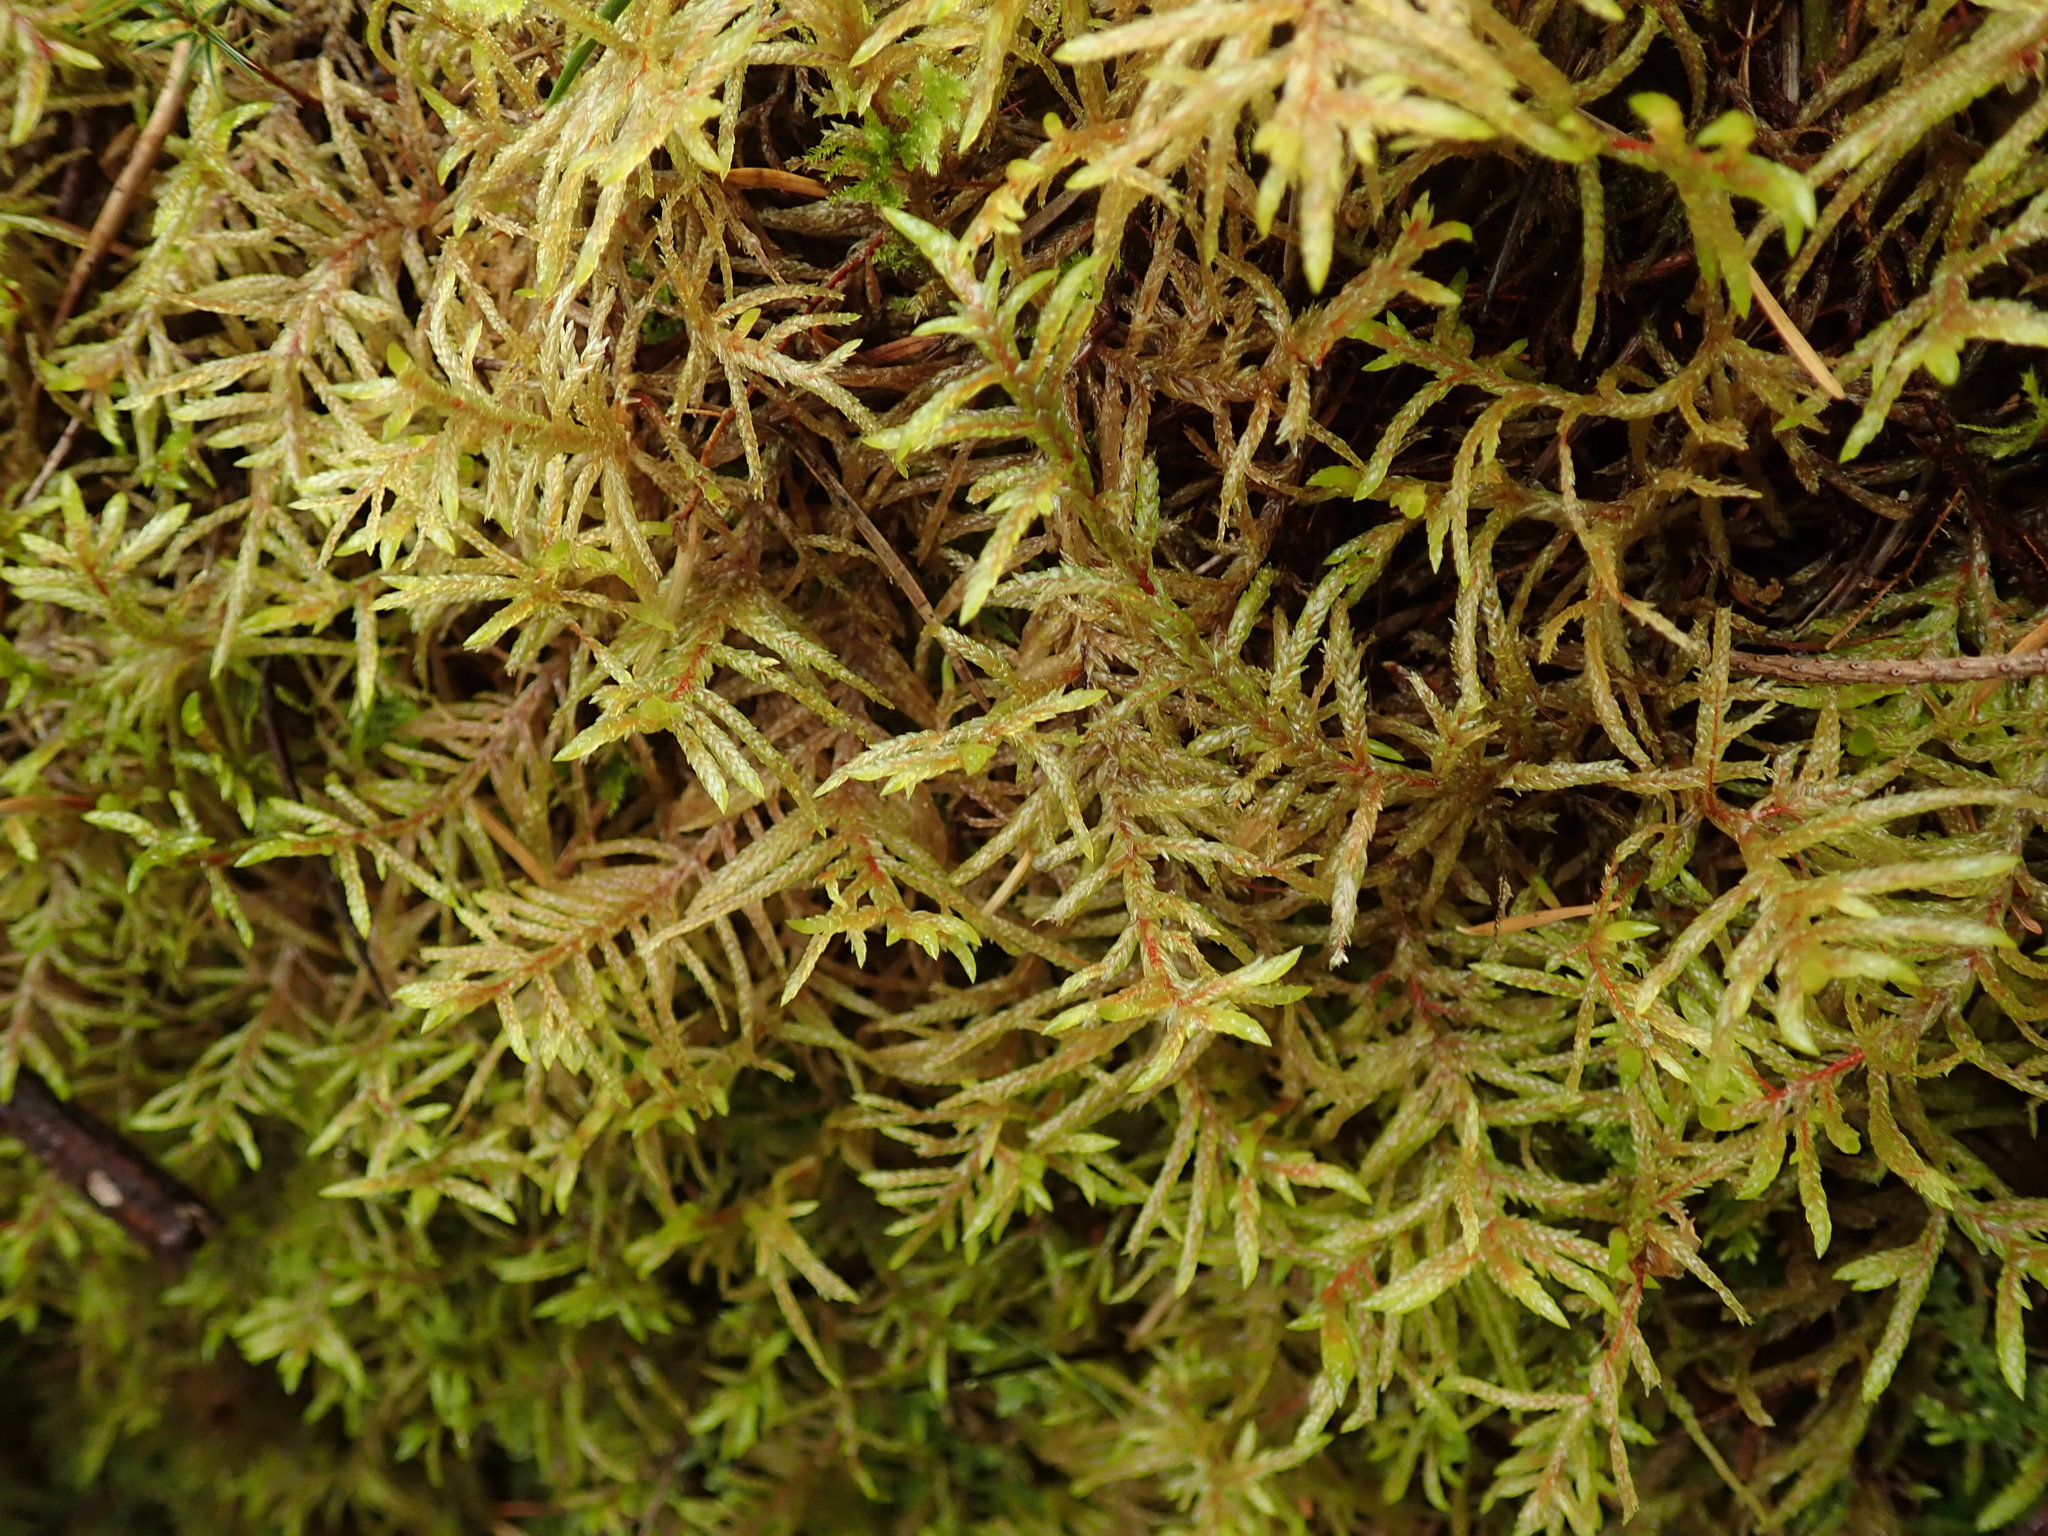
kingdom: Plantae
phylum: Bryophyta
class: Bryopsida
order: Hypnales
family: Hylocomiaceae
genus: Pleurozium
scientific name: Pleurozium schreberi
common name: Red-stemmed feather moss
